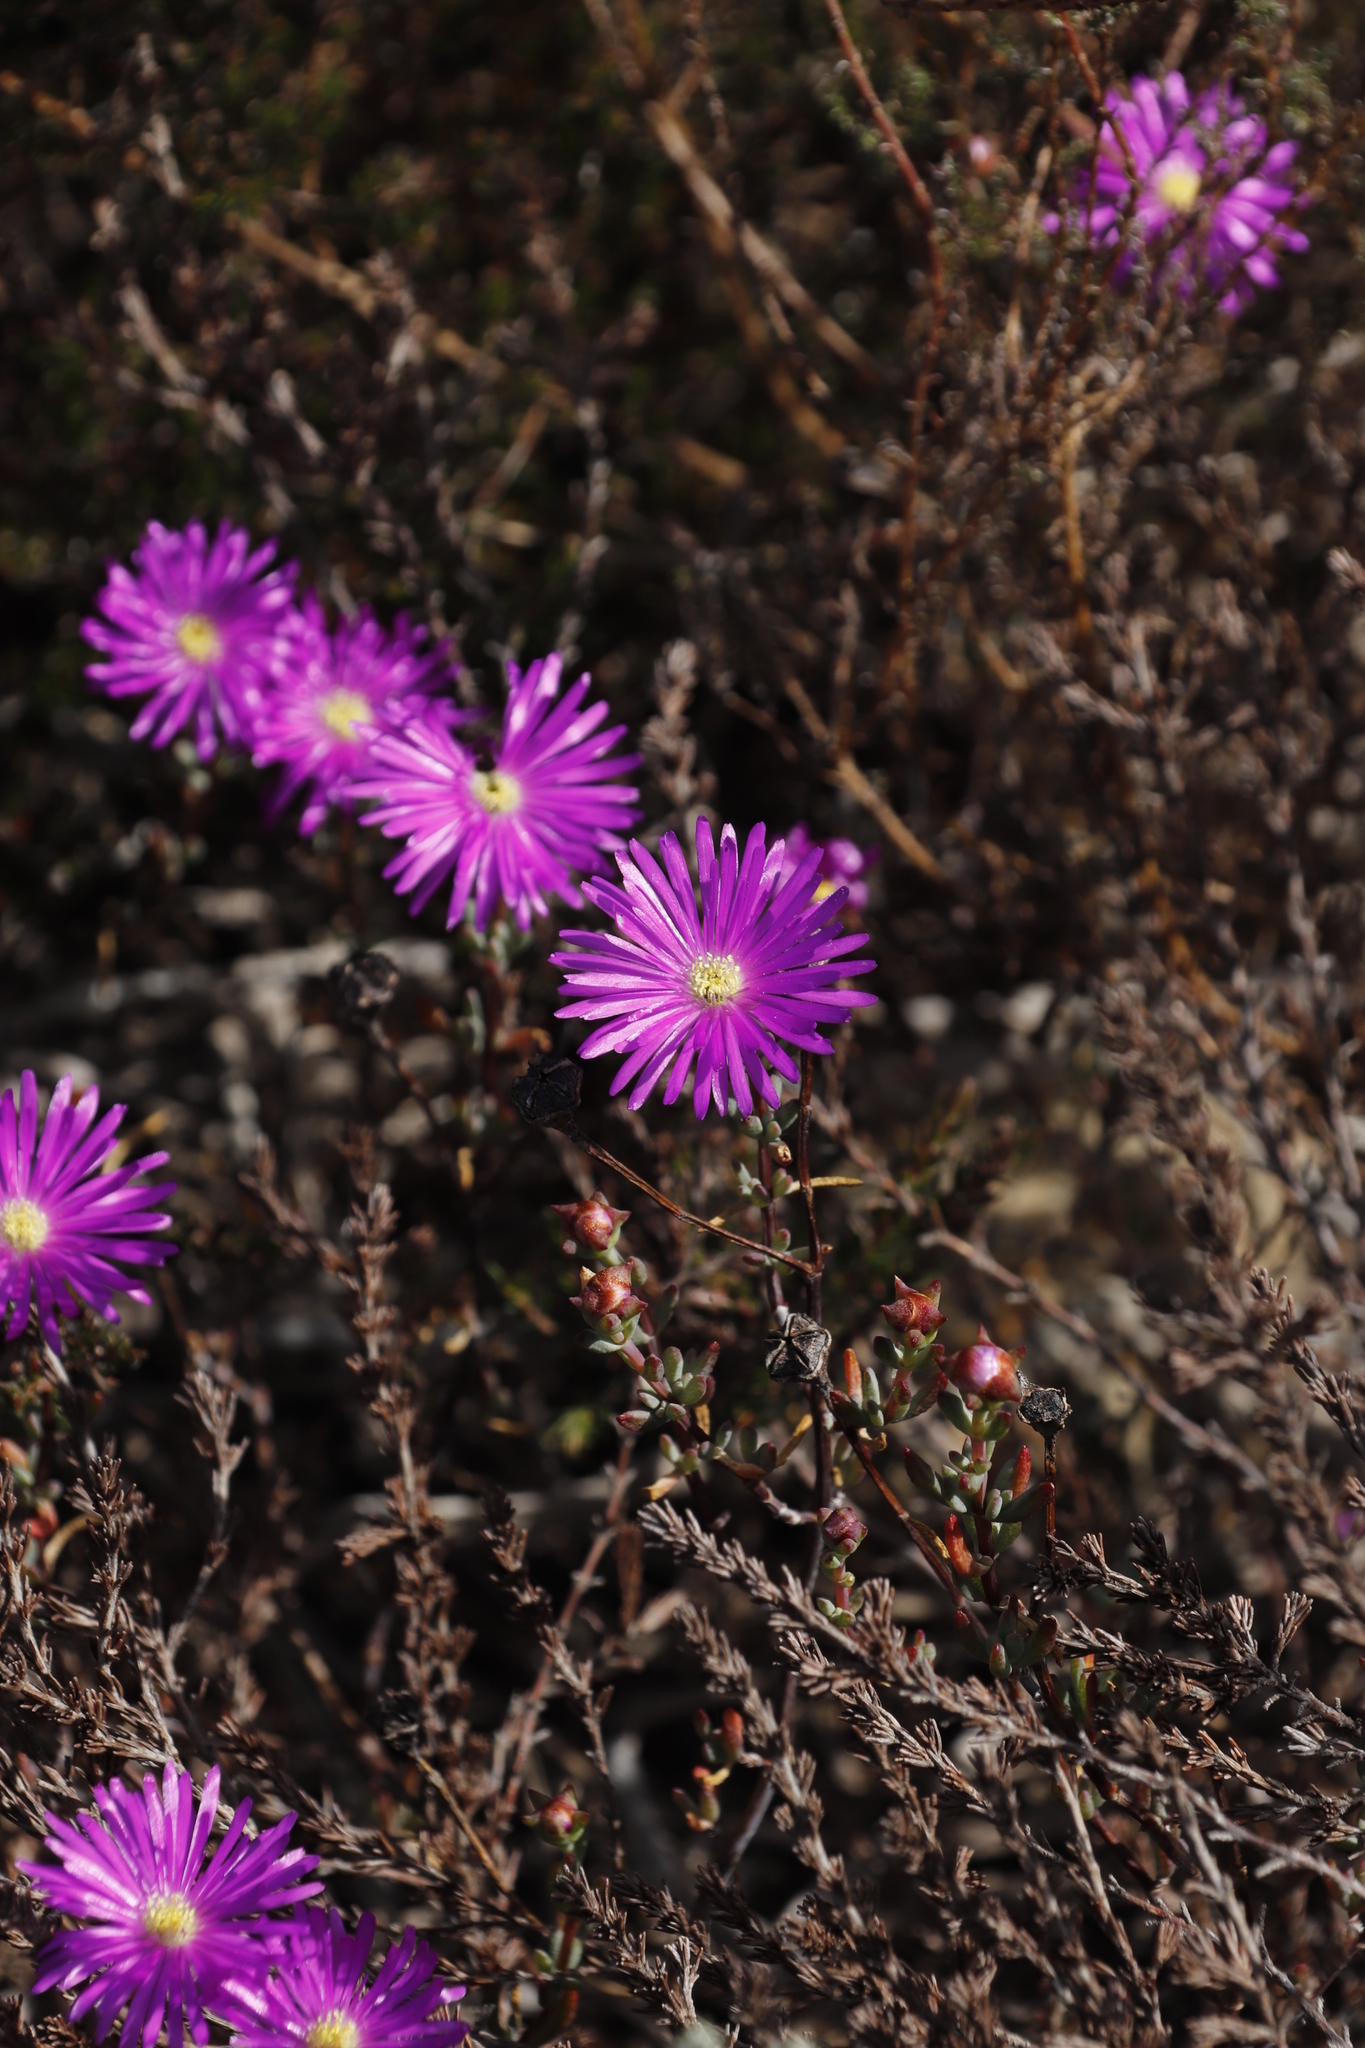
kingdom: Plantae
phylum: Tracheophyta
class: Magnoliopsida
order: Caryophyllales
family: Aizoaceae
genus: Lampranthus
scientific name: Lampranthus emarginatus
